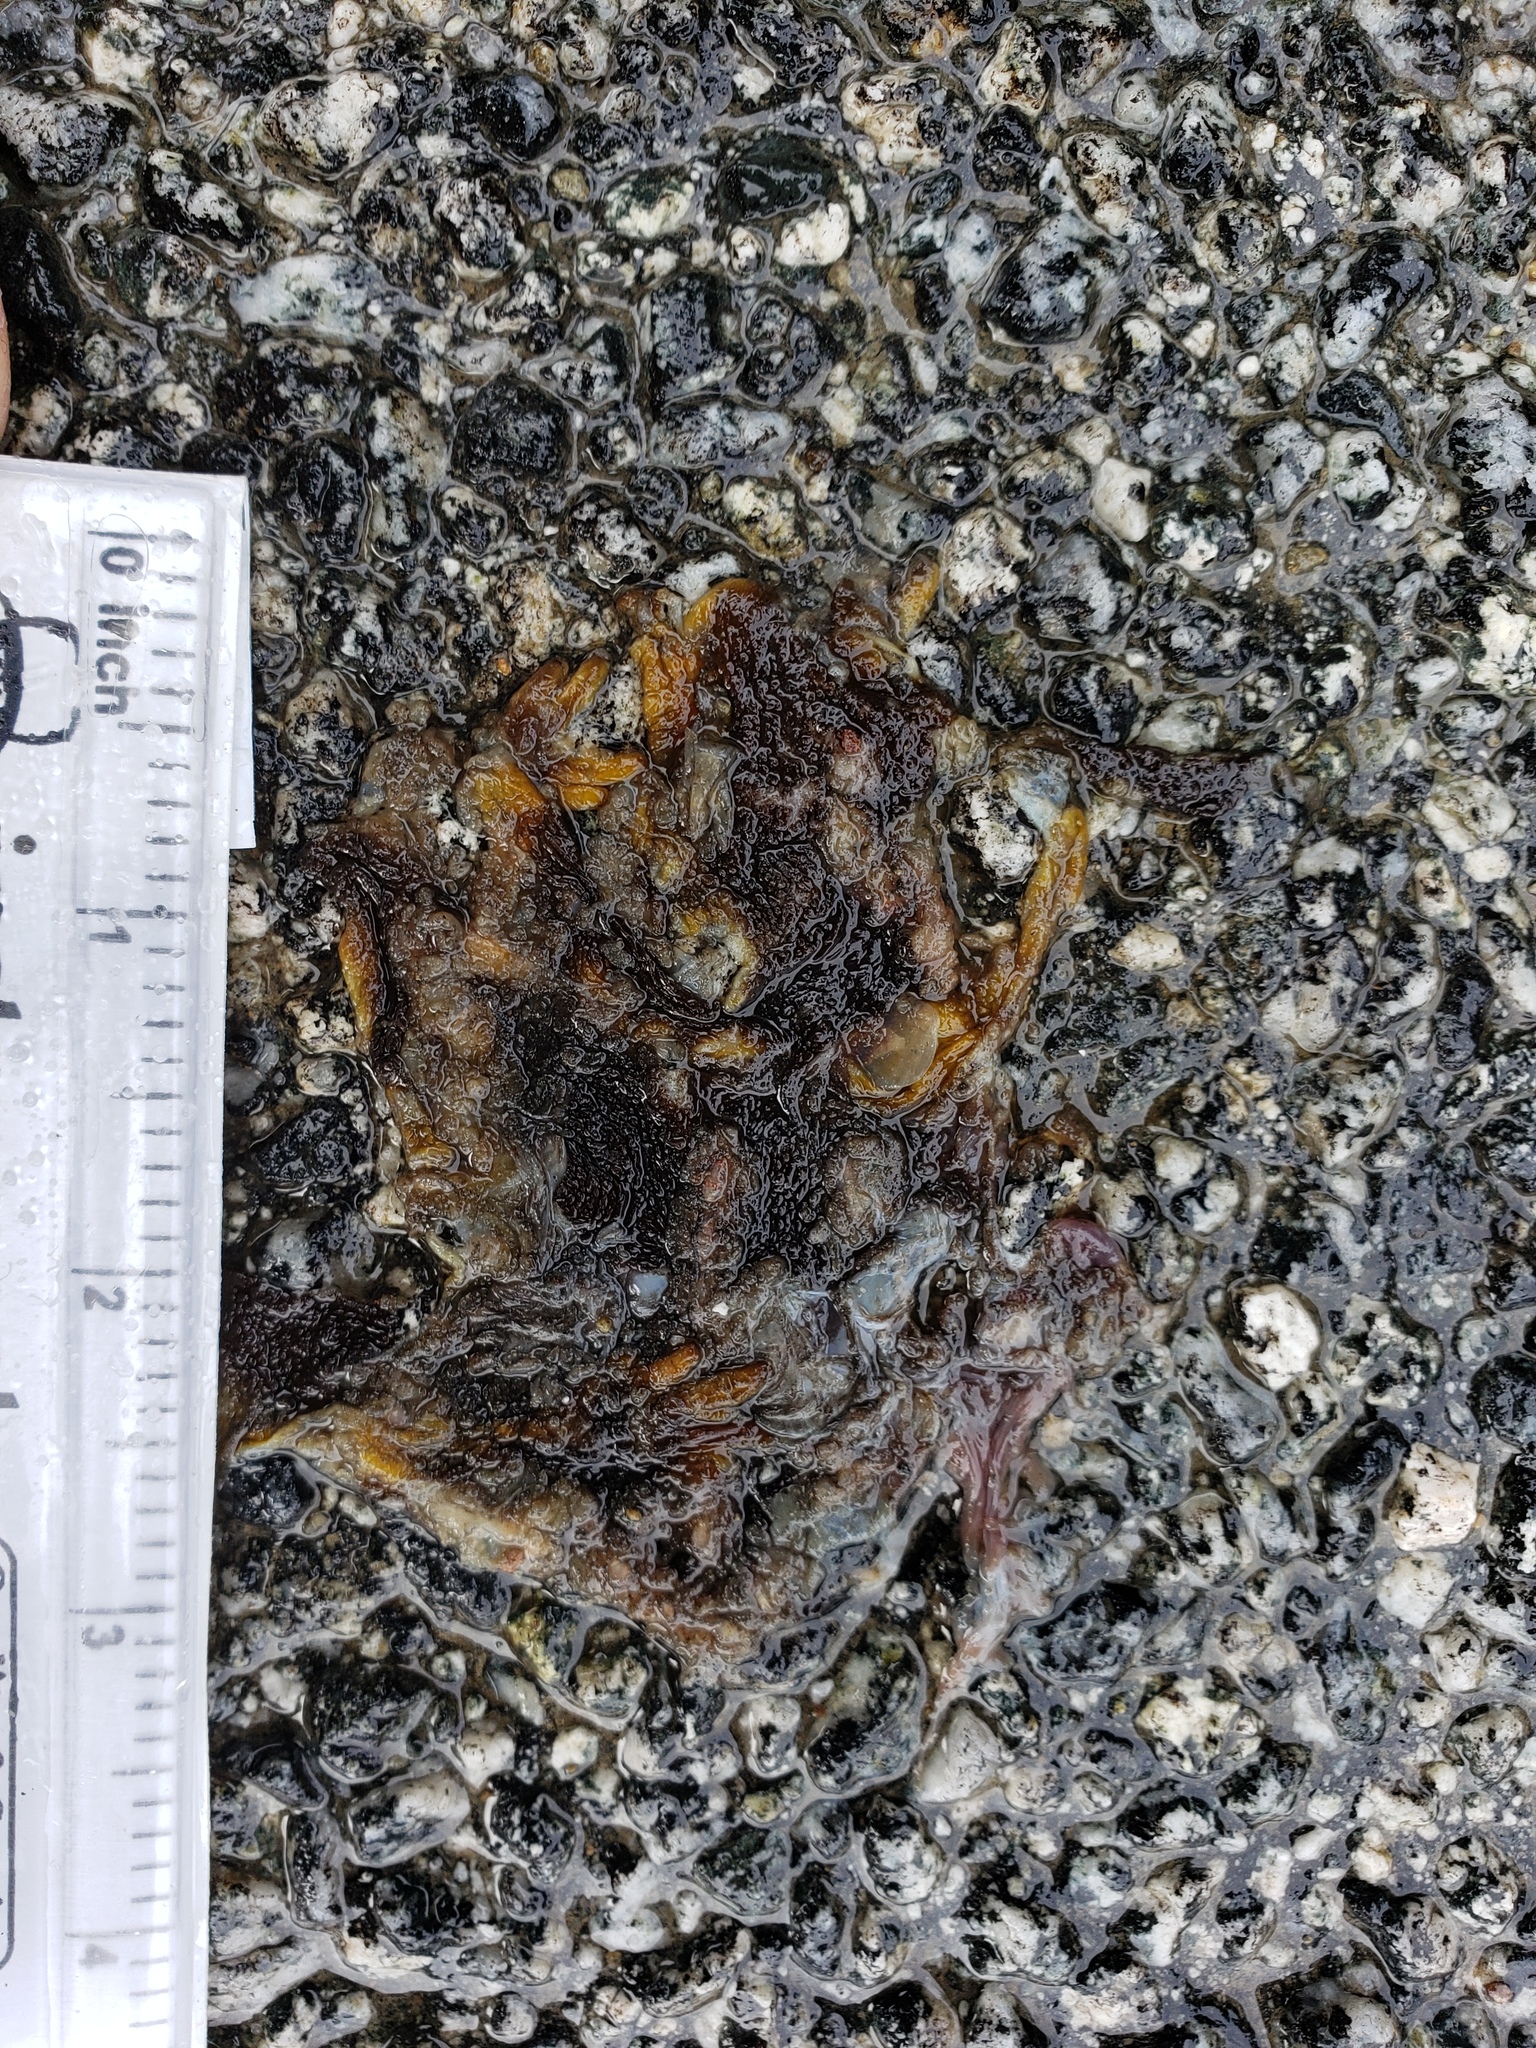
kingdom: Animalia
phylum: Chordata
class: Amphibia
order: Caudata
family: Salamandridae
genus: Taricha
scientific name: Taricha
